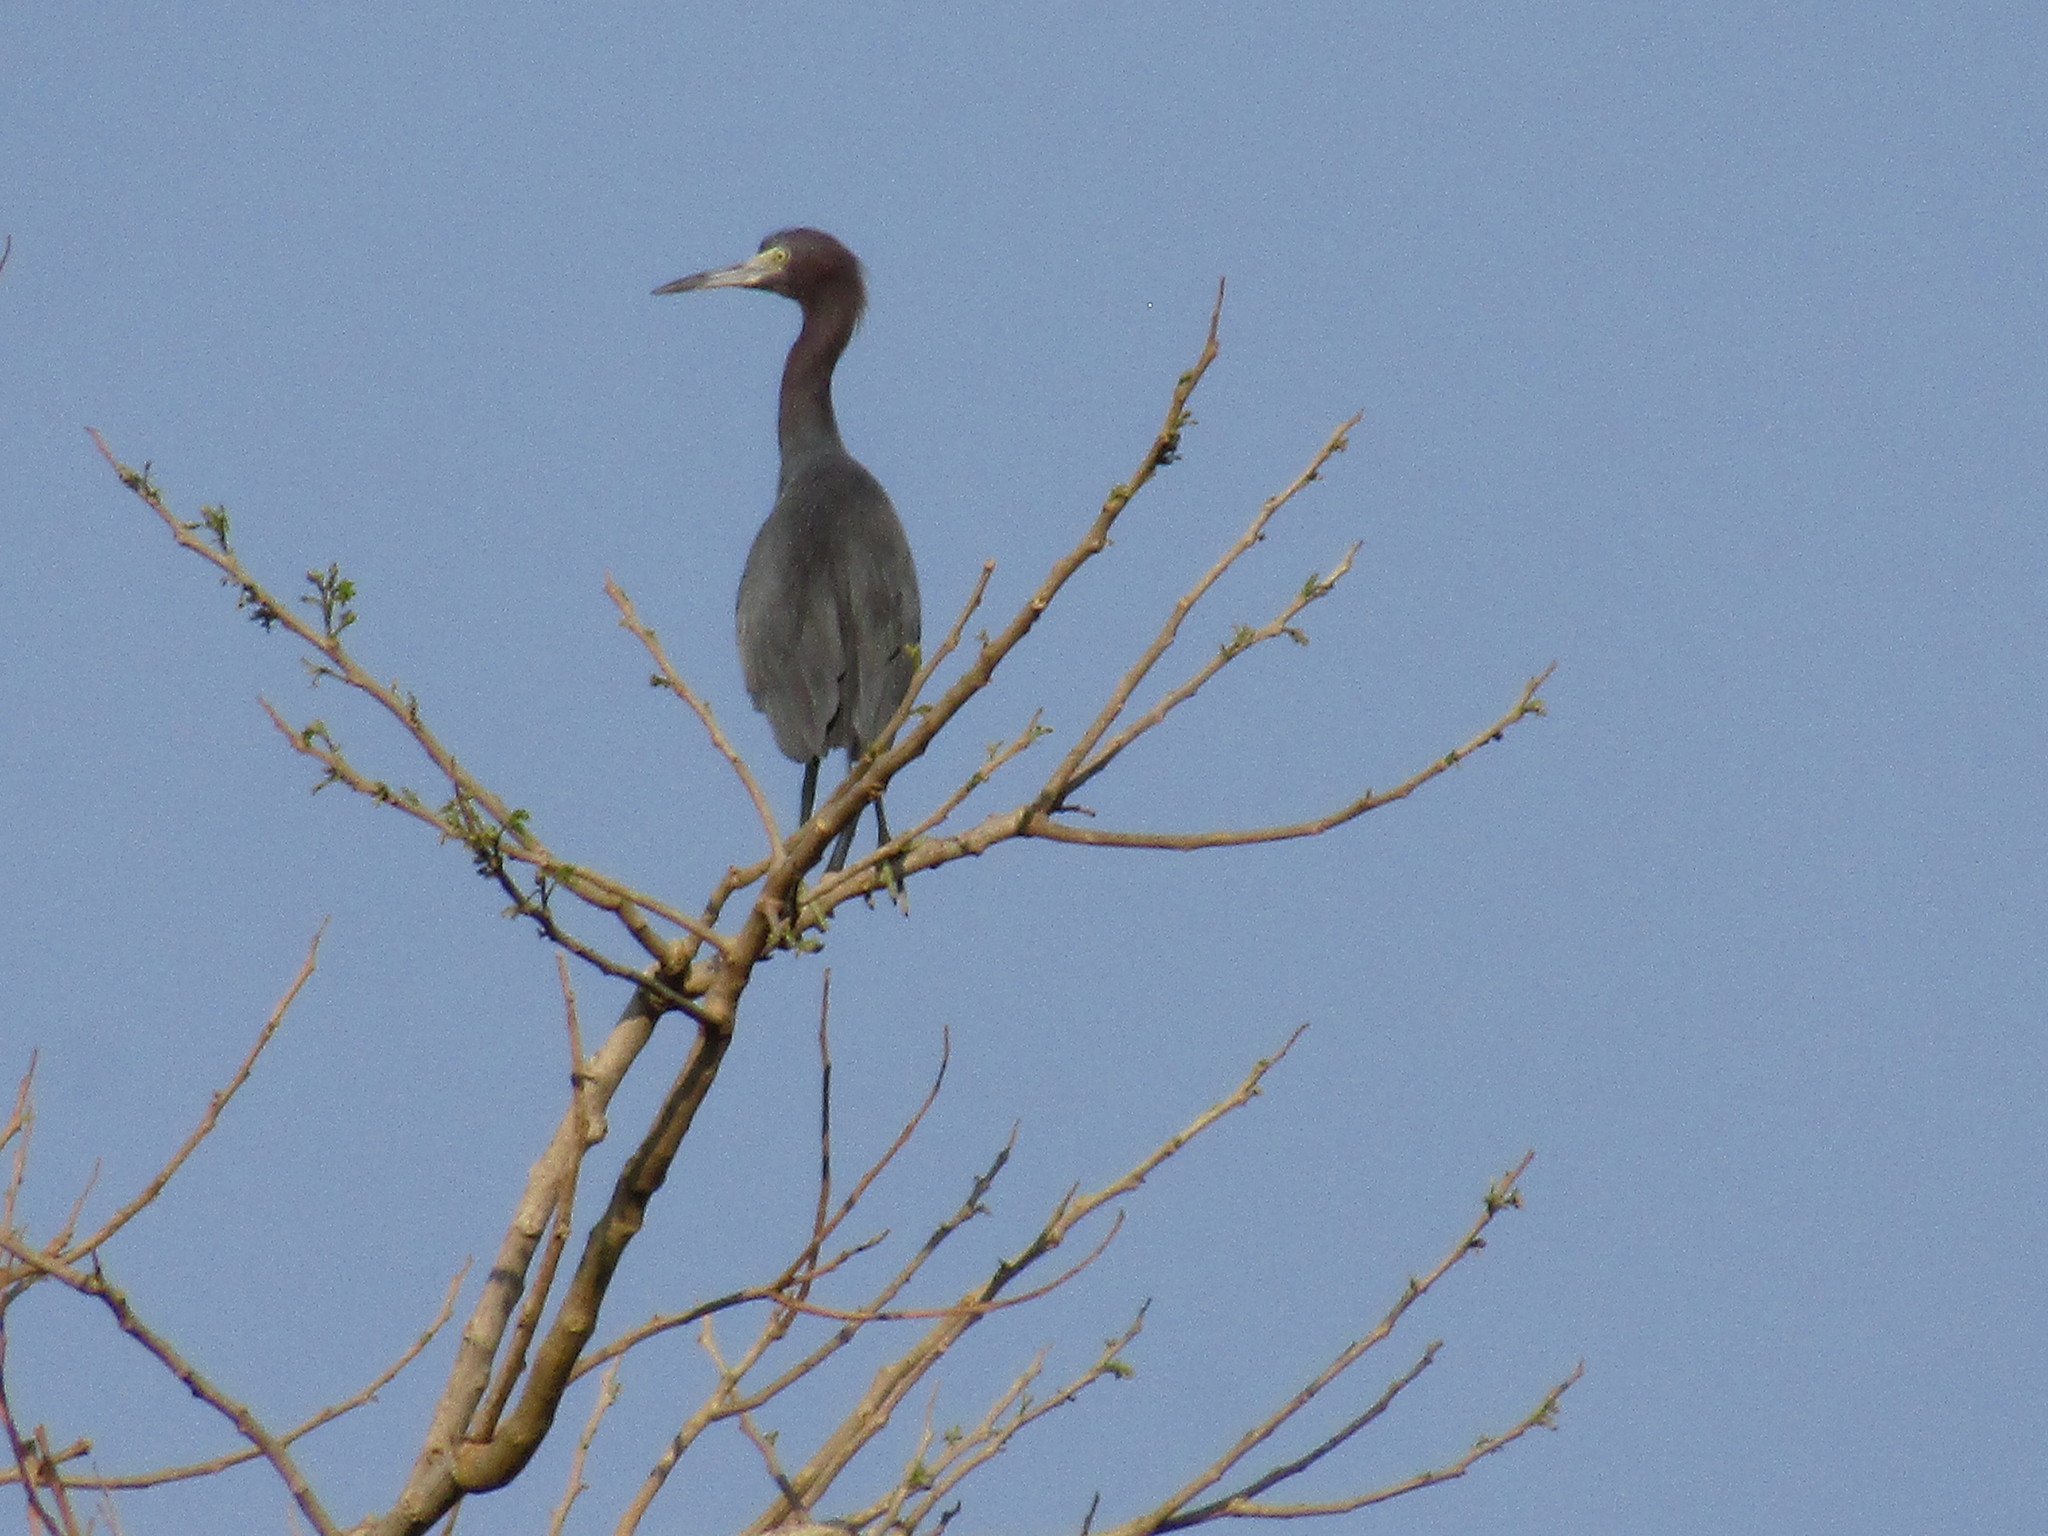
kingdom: Animalia
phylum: Chordata
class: Aves
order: Pelecaniformes
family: Ardeidae
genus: Egretta
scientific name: Egretta caerulea
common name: Little blue heron
